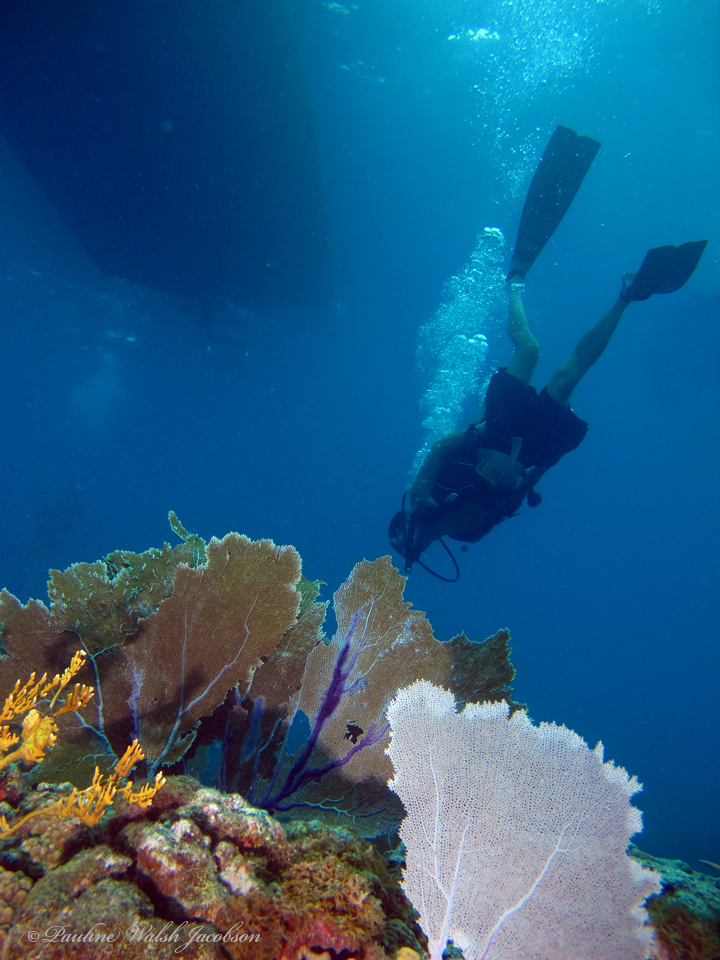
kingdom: Animalia
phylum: Cnidaria
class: Anthozoa
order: Malacalcyonacea
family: Gorgoniidae
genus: Gorgonia
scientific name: Gorgonia ventalina
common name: Common sea fan
